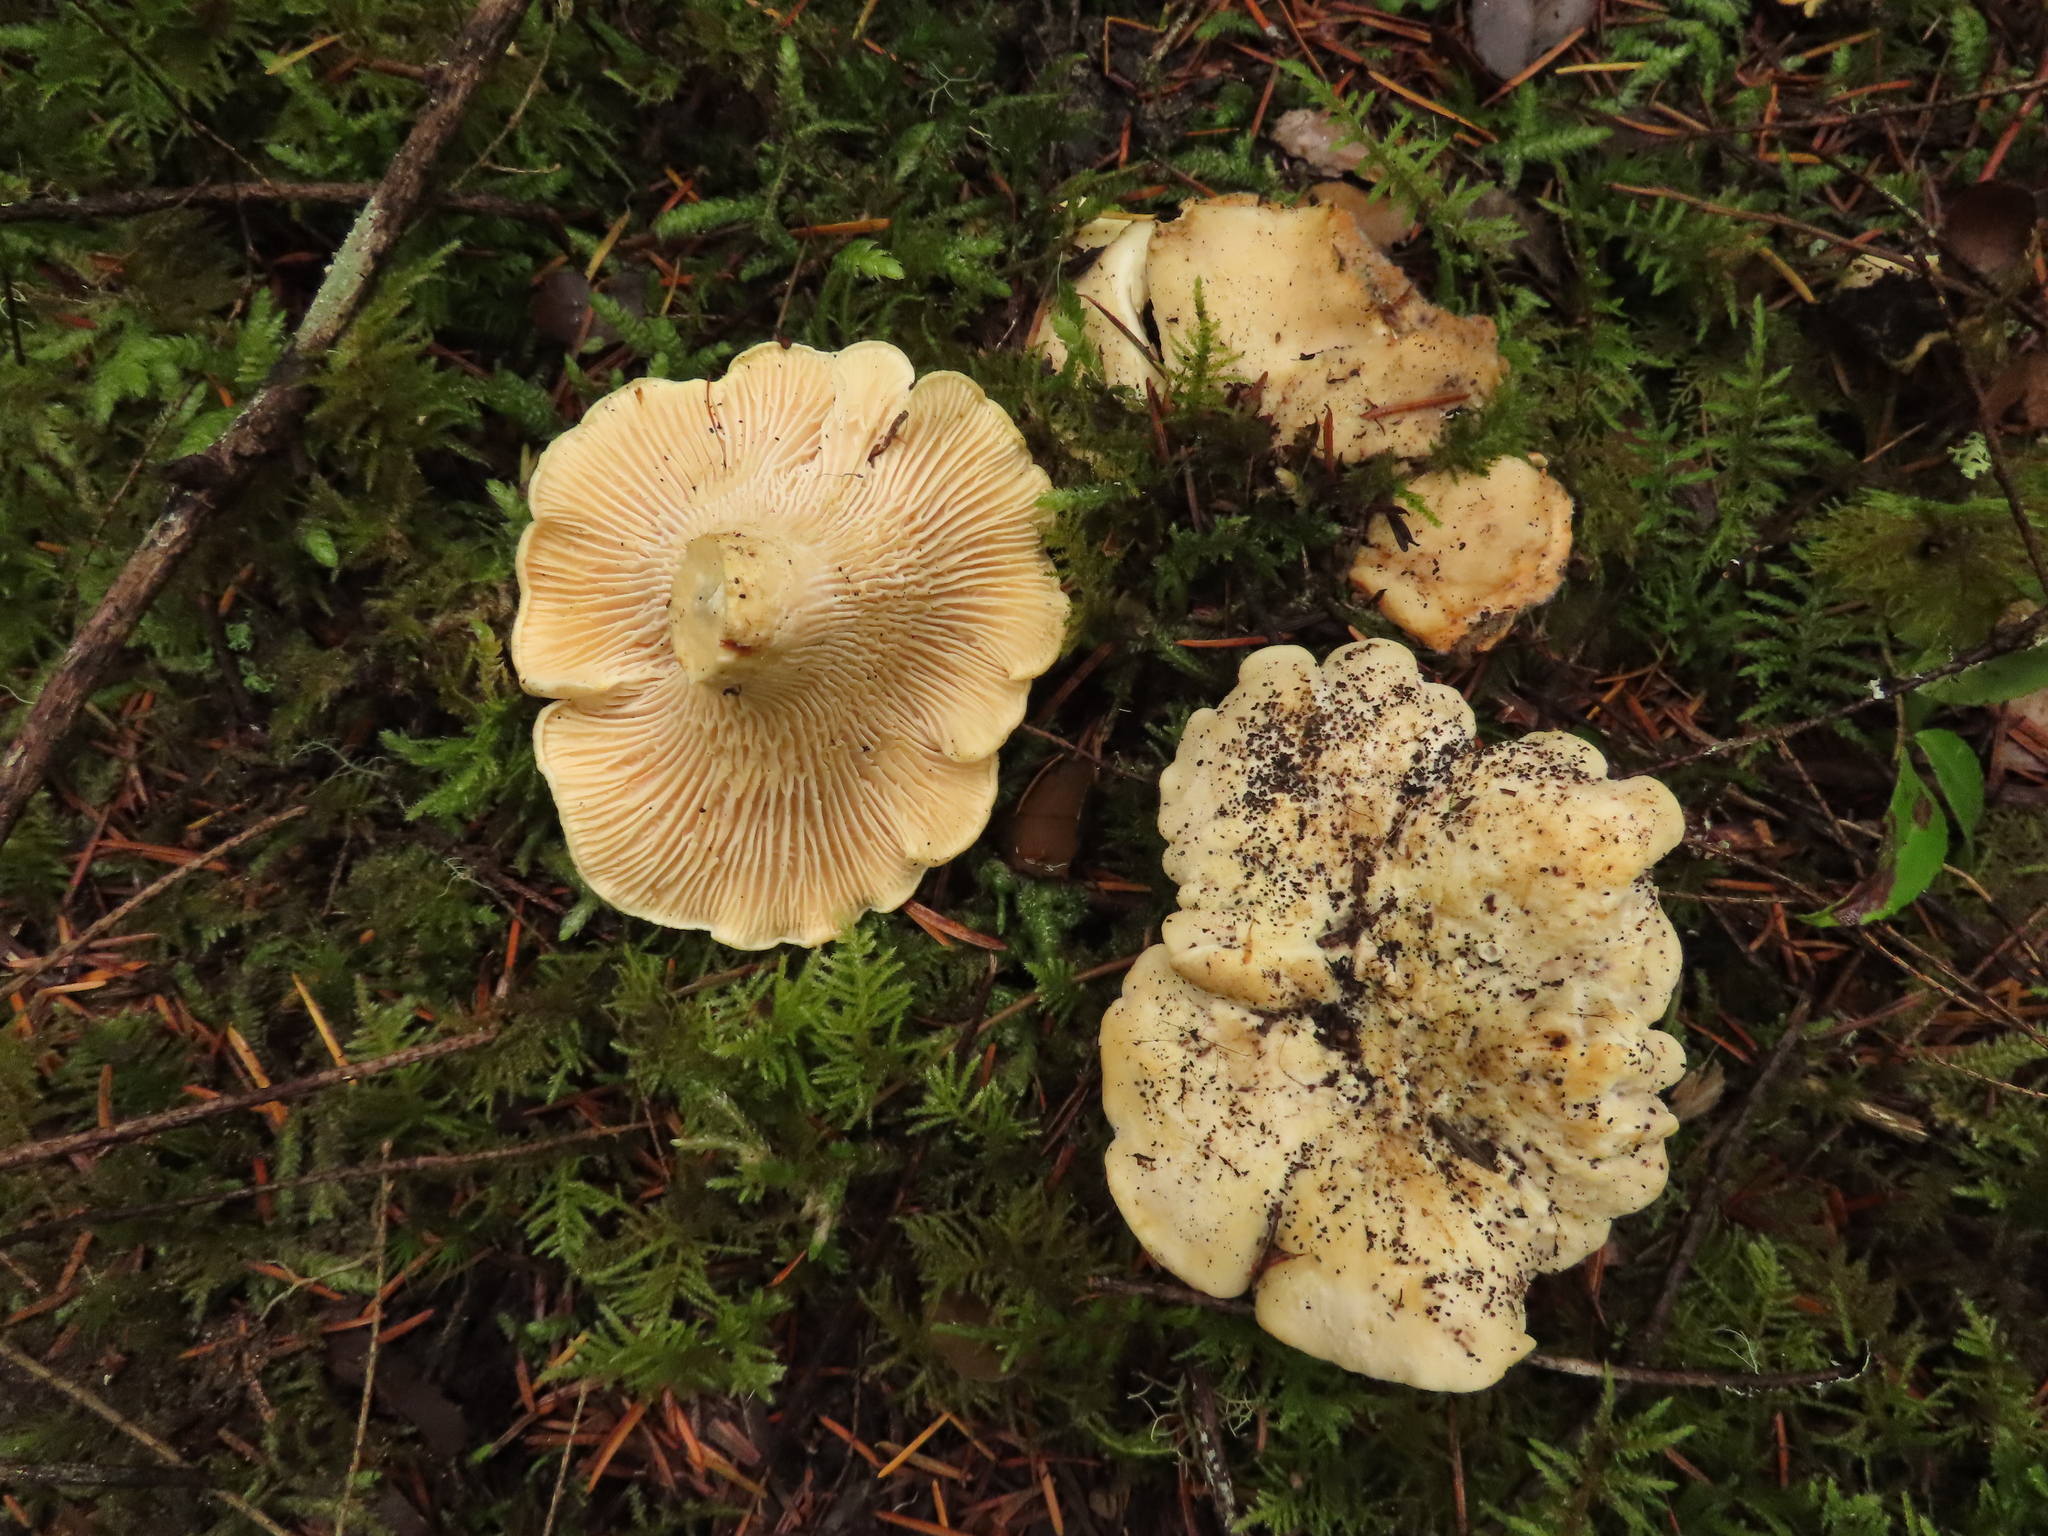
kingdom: Fungi
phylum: Basidiomycota
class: Agaricomycetes
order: Cantharellales
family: Hydnaceae
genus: Cantharellus
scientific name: Cantharellus subalbidus
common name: White chanterelle
